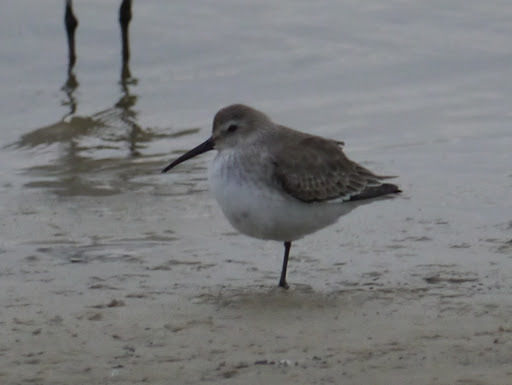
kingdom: Animalia
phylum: Chordata
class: Aves
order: Charadriiformes
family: Scolopacidae
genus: Calidris
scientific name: Calidris alpina
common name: Dunlin
